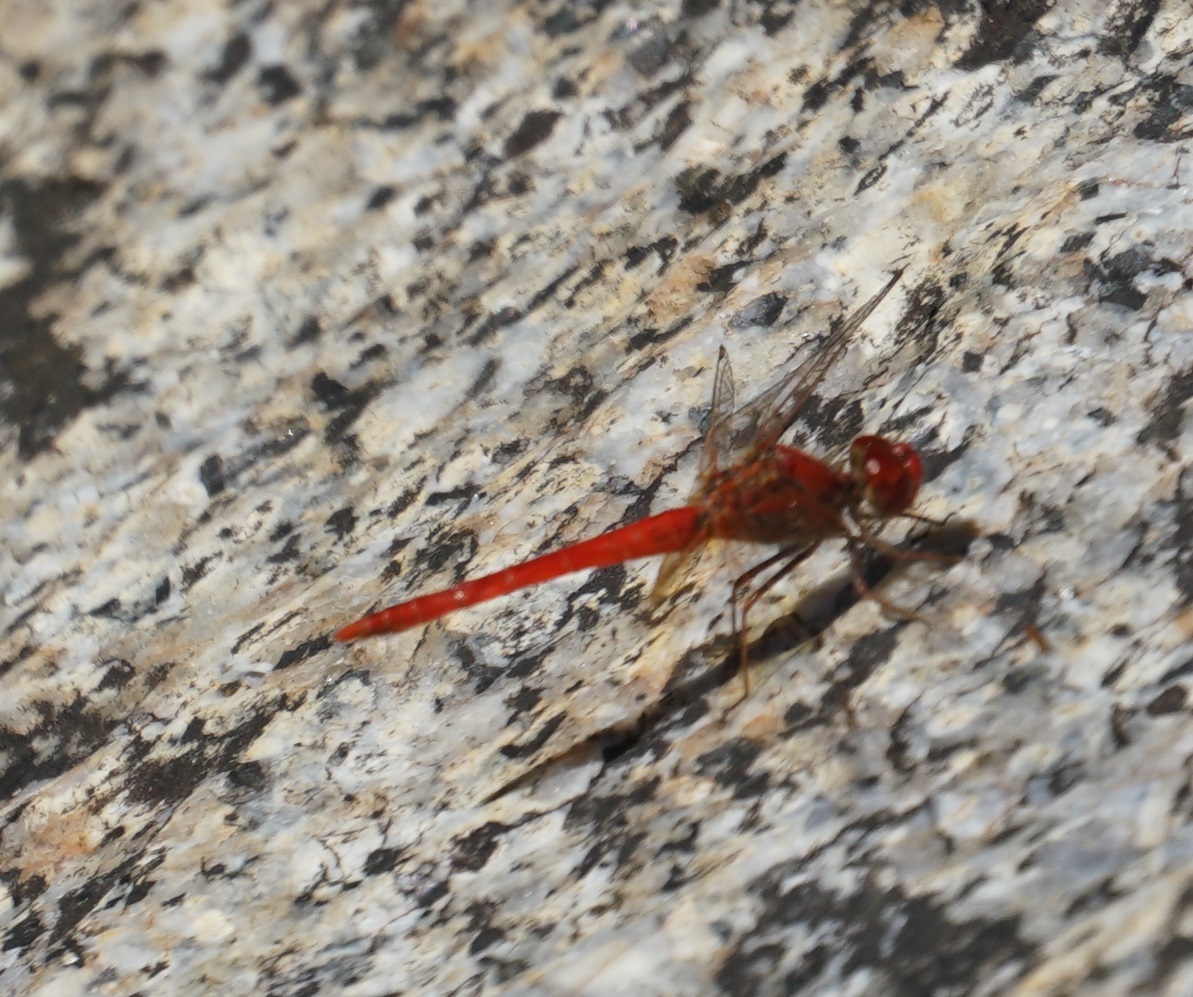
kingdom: Animalia
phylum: Arthropoda
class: Insecta
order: Odonata
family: Libellulidae
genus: Diplacodes
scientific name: Diplacodes haematodes
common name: Scarlet percher
